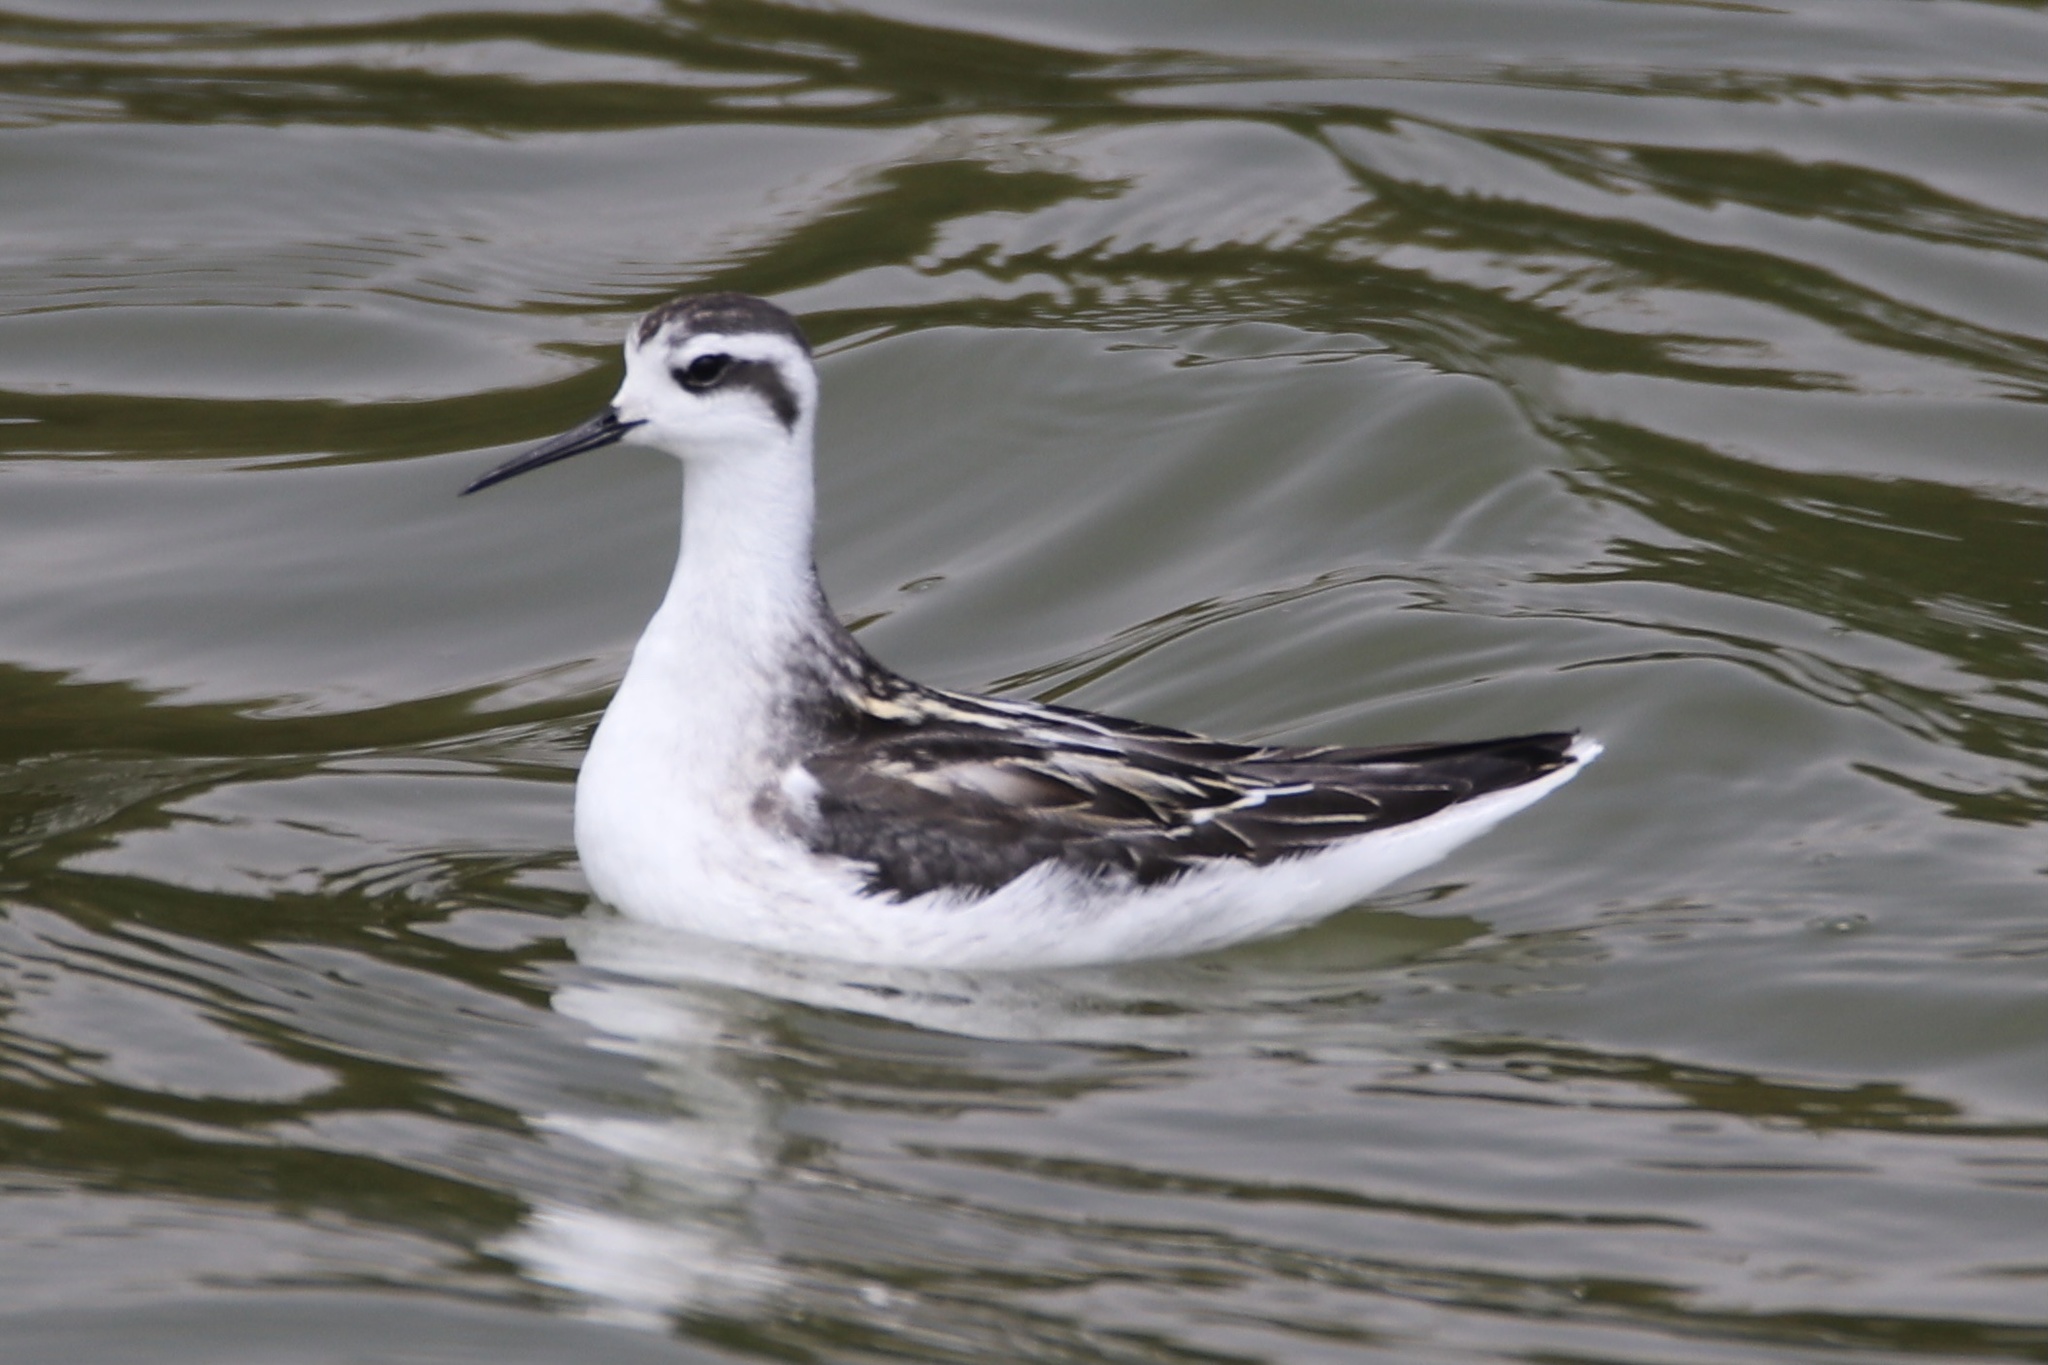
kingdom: Animalia
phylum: Chordata
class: Aves
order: Charadriiformes
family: Scolopacidae
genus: Phalaropus
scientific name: Phalaropus lobatus
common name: Red-necked phalarope
